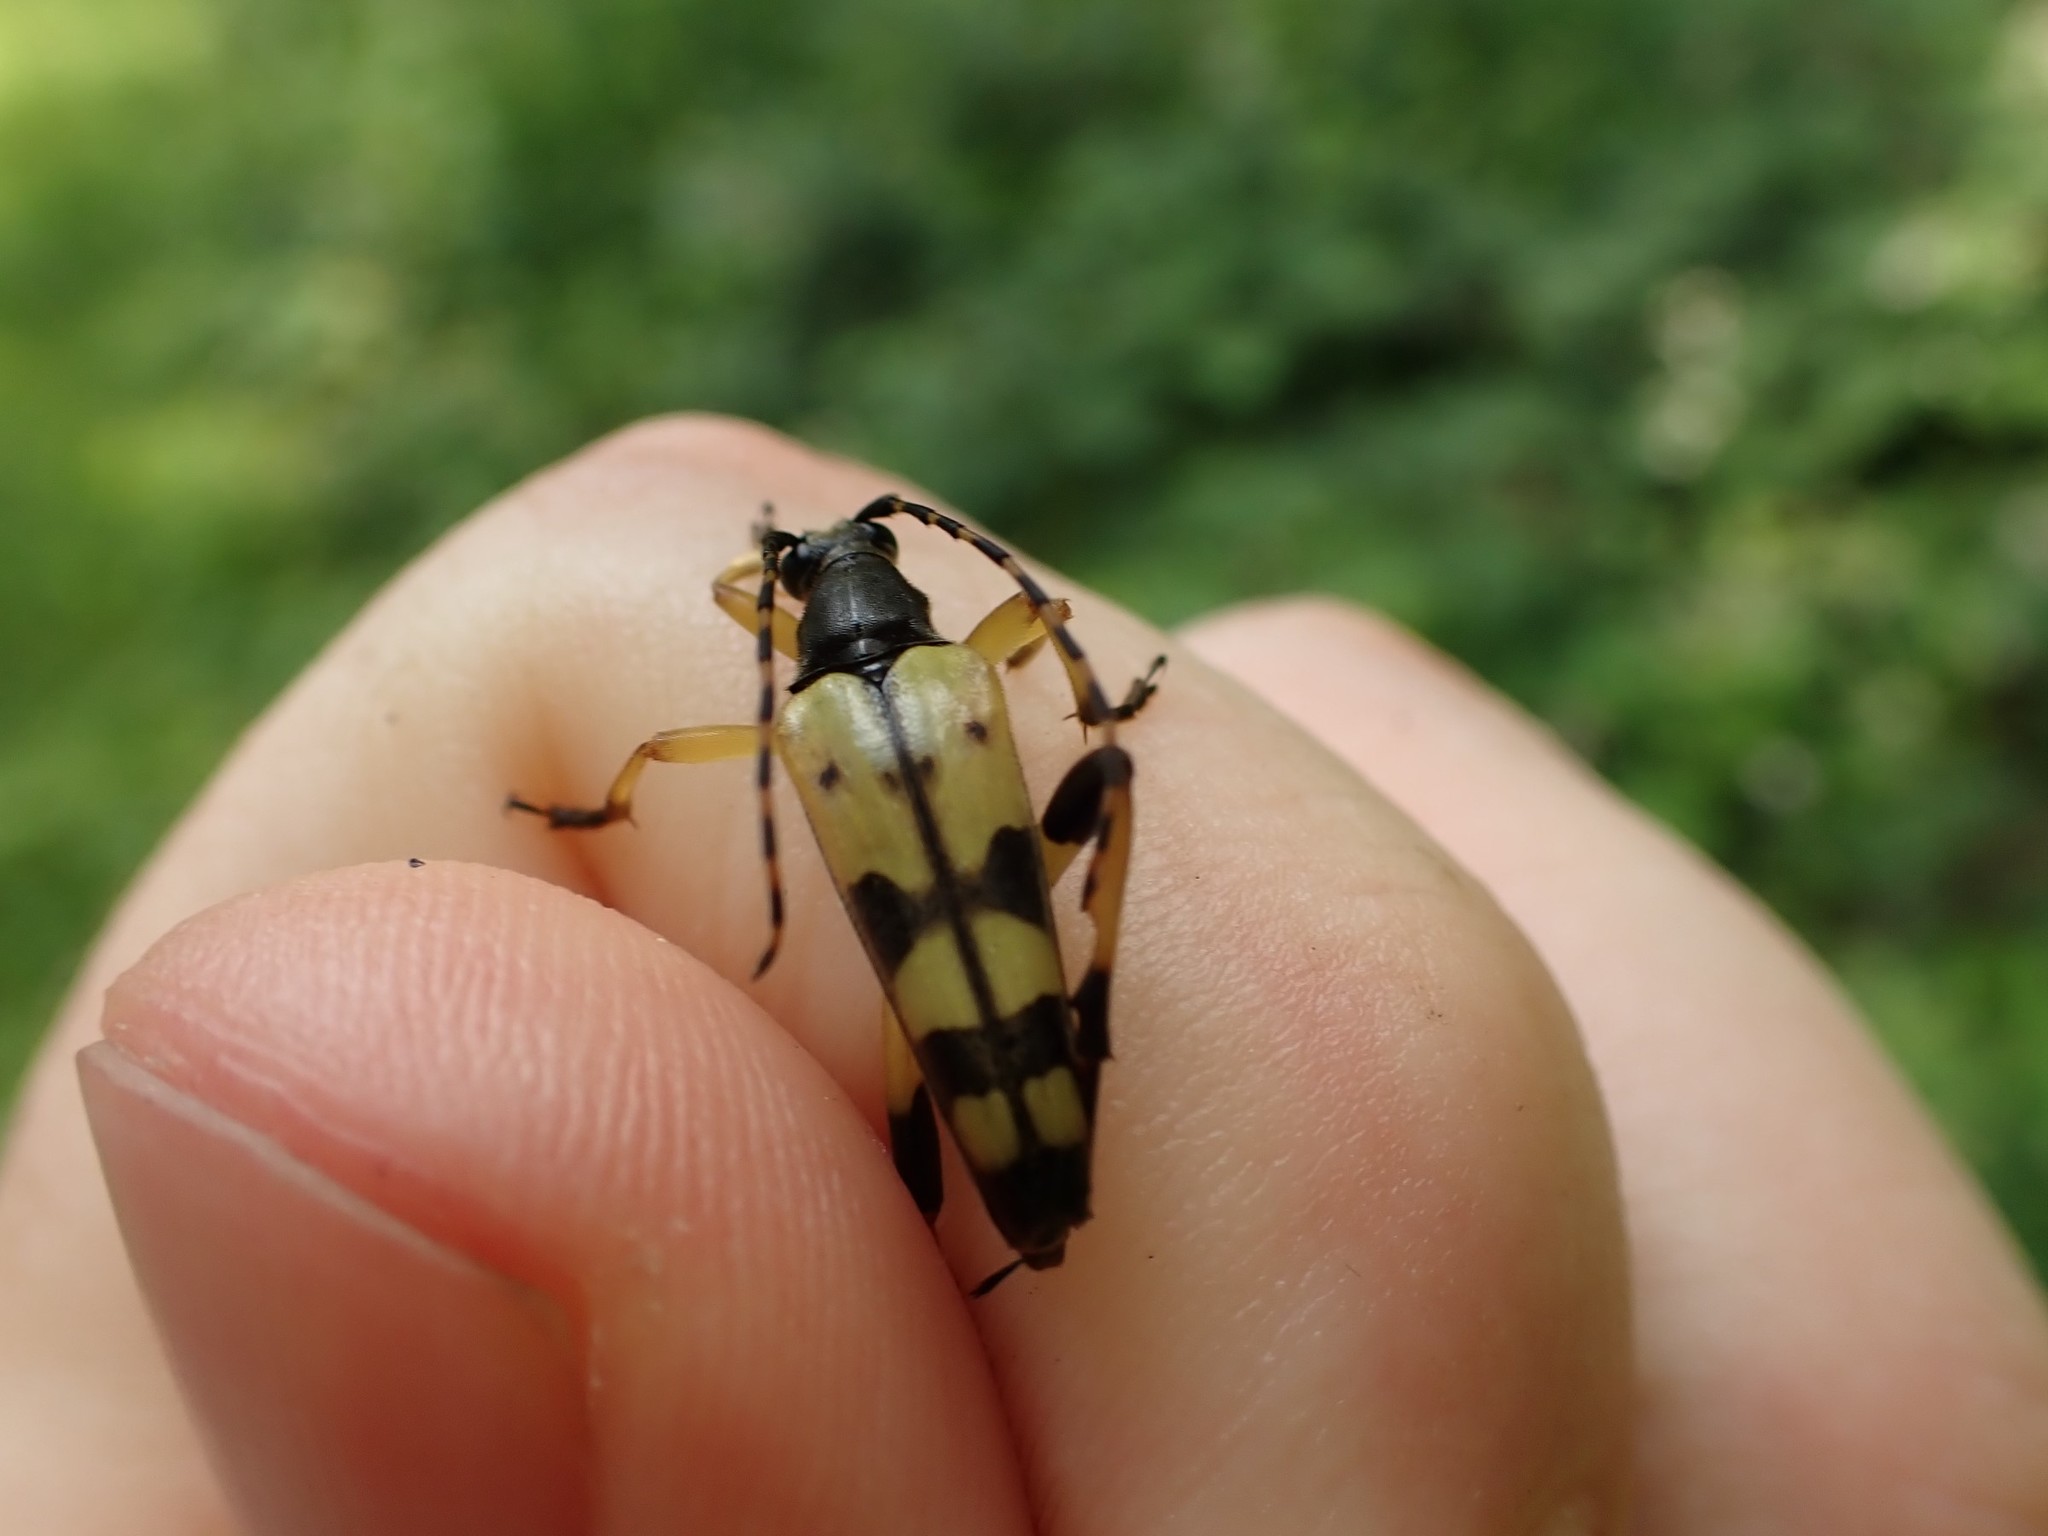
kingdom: Animalia
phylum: Arthropoda
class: Insecta
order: Coleoptera
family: Cerambycidae
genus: Rutpela
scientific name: Rutpela maculata
